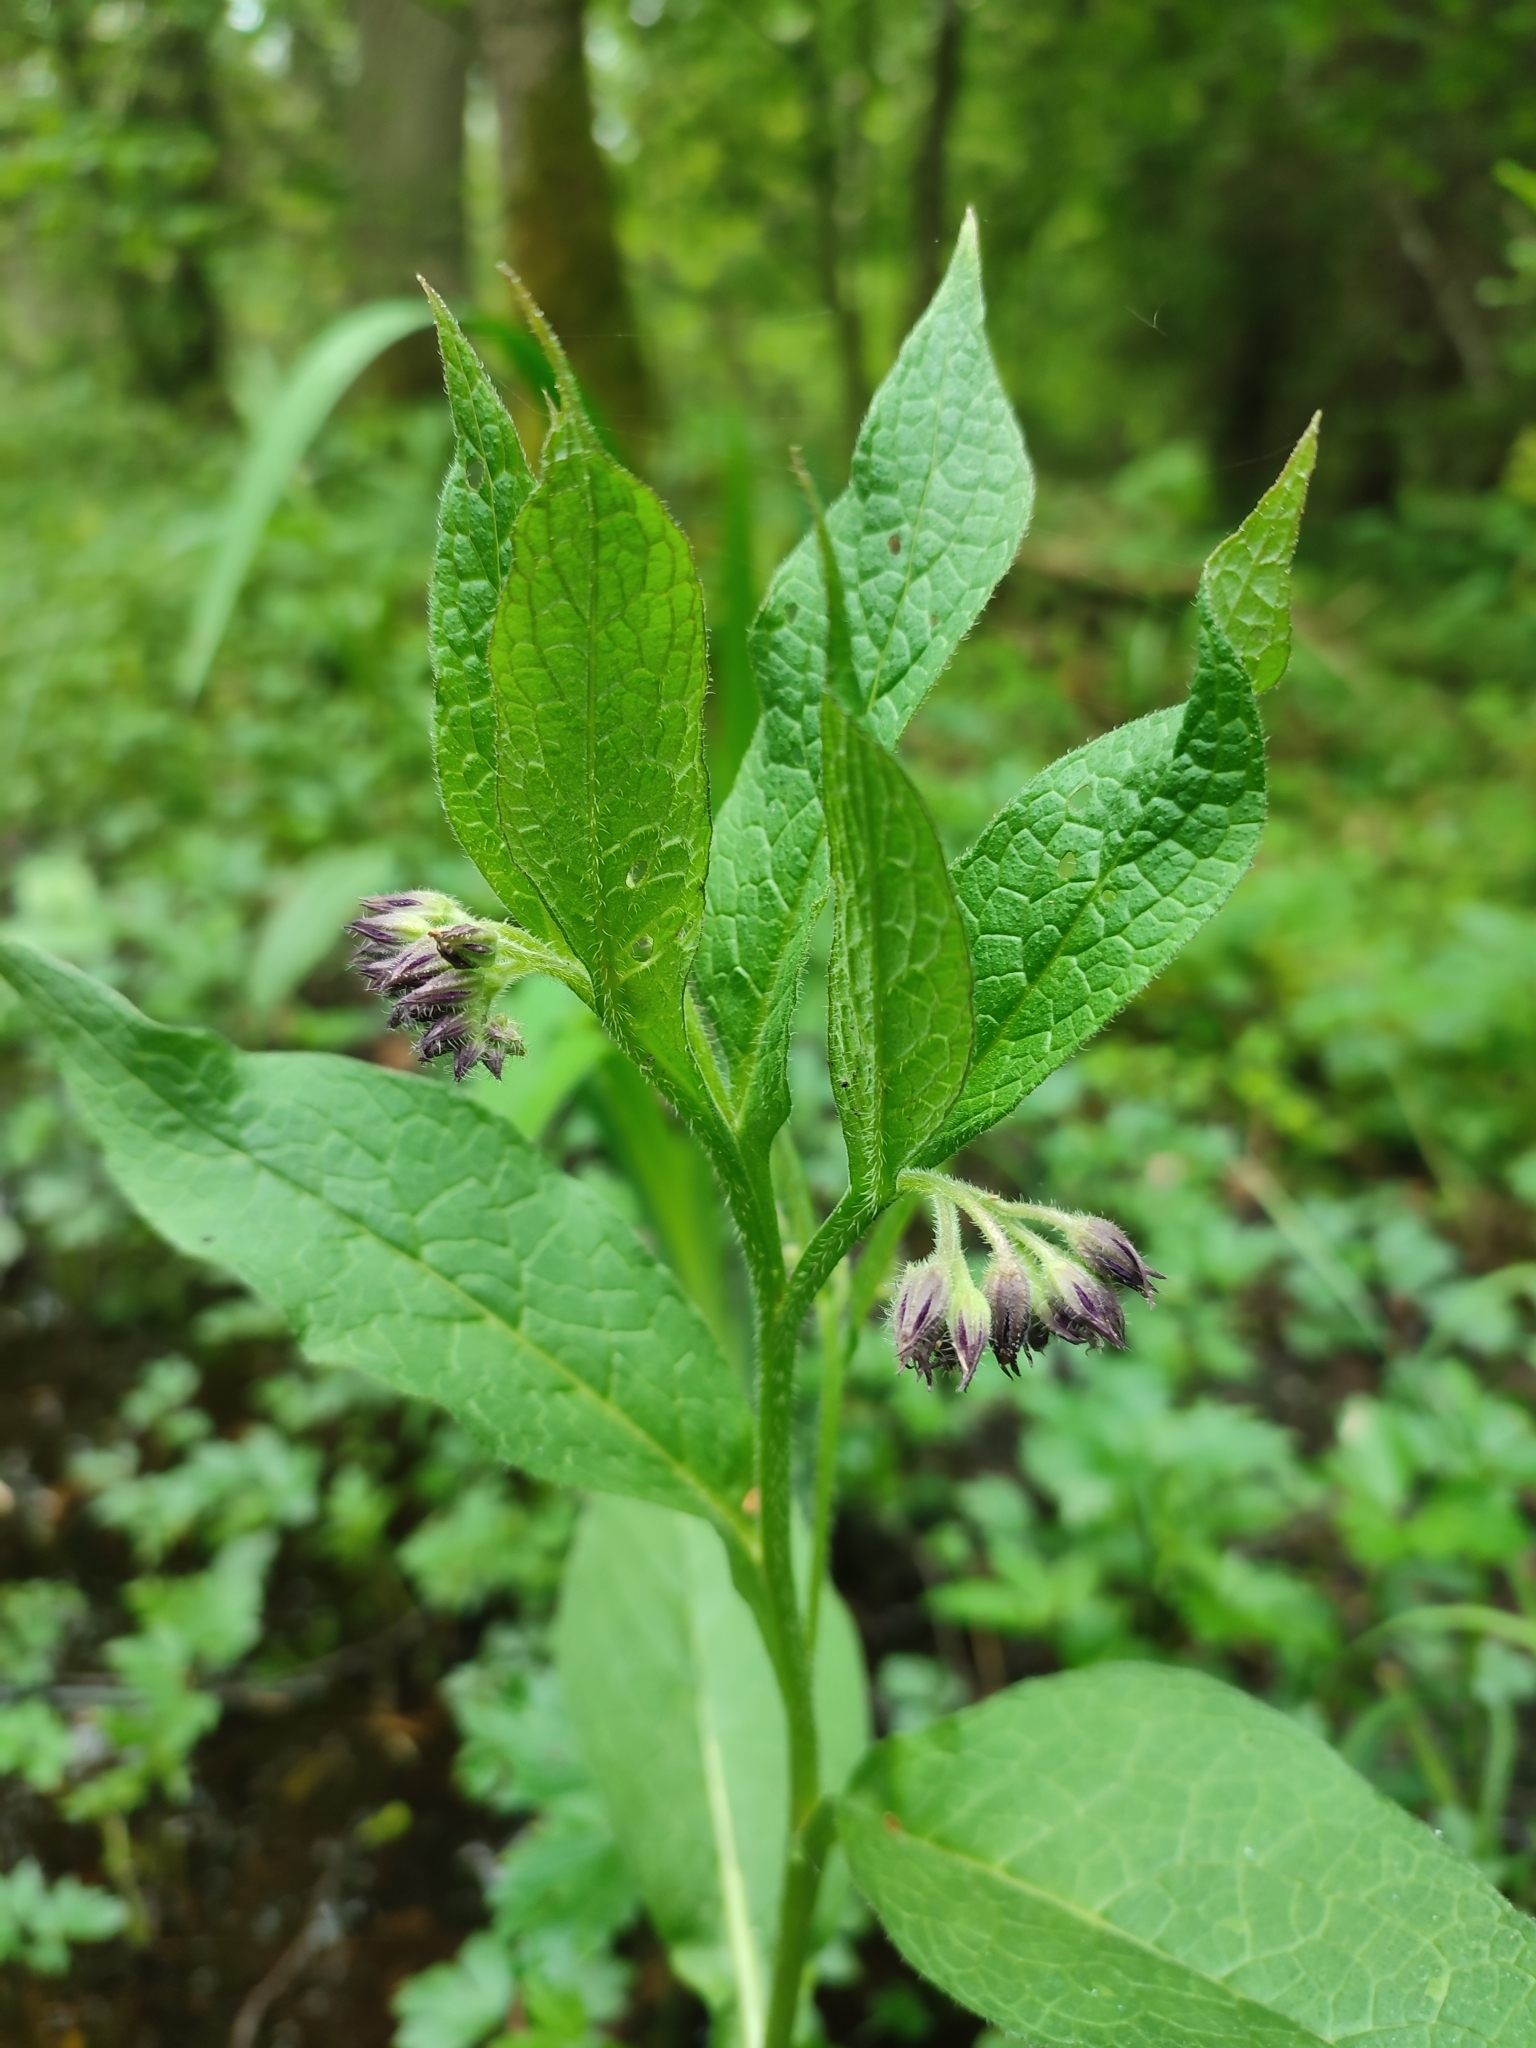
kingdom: Plantae
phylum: Tracheophyta
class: Magnoliopsida
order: Boraginales
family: Boraginaceae
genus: Symphytum
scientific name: Symphytum officinale
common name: Common comfrey
